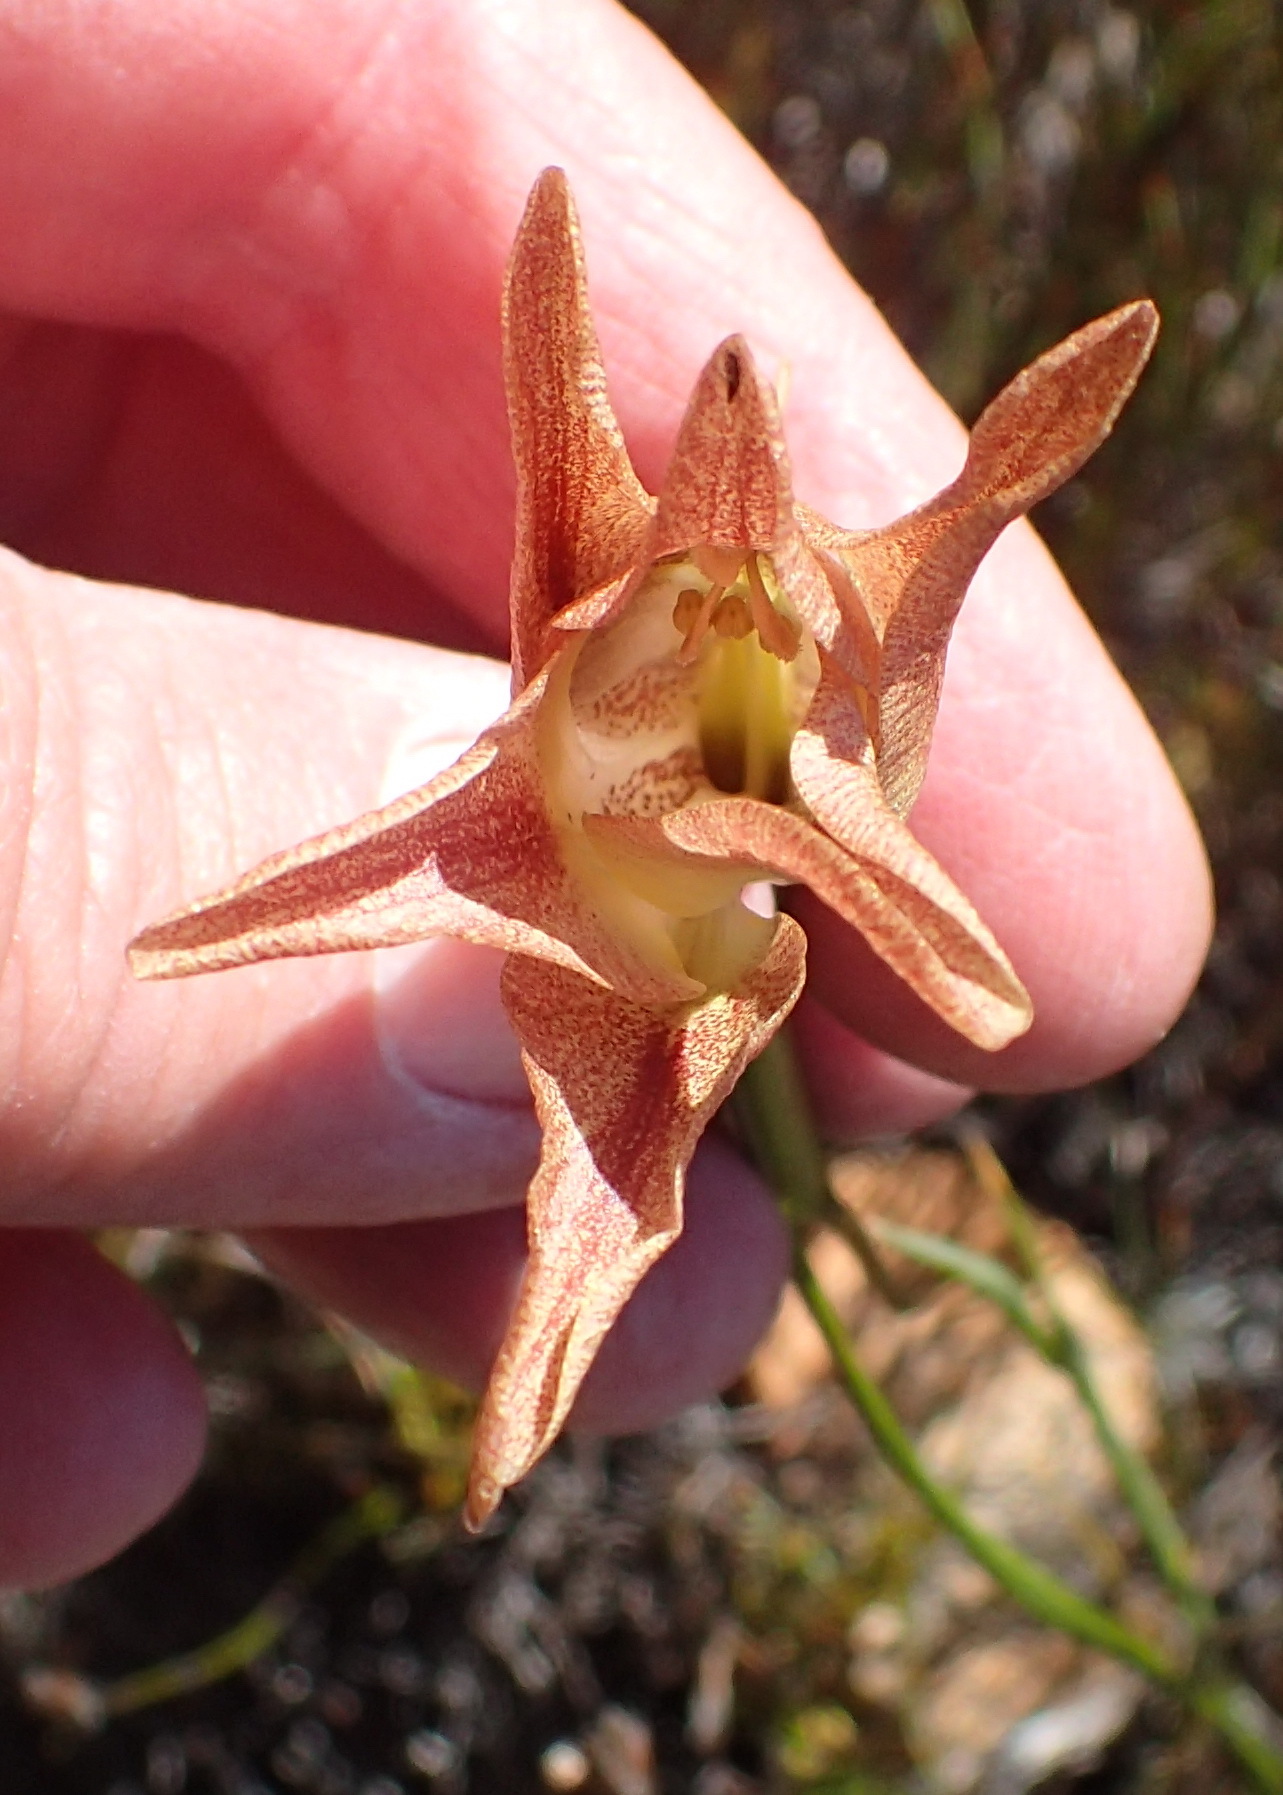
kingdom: Plantae
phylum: Tracheophyta
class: Liliopsida
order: Asparagales
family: Iridaceae
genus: Gladiolus
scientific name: Gladiolus liliaceus
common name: Large brown afrikaner
